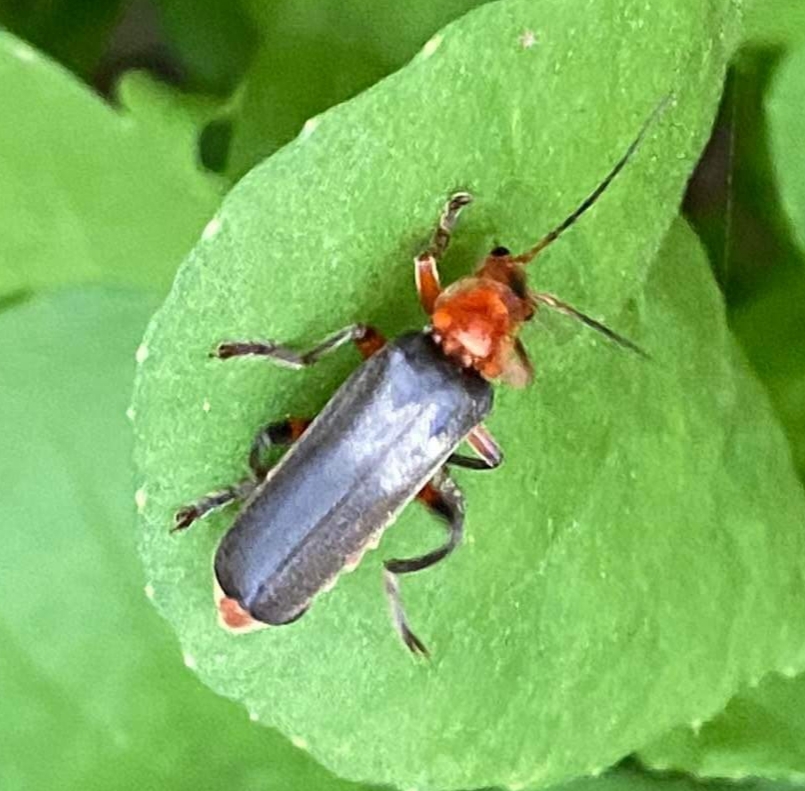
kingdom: Animalia
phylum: Arthropoda
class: Insecta
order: Coleoptera
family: Cantharidae
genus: Cantharis
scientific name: Cantharis livida
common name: Livid soldier beetle
